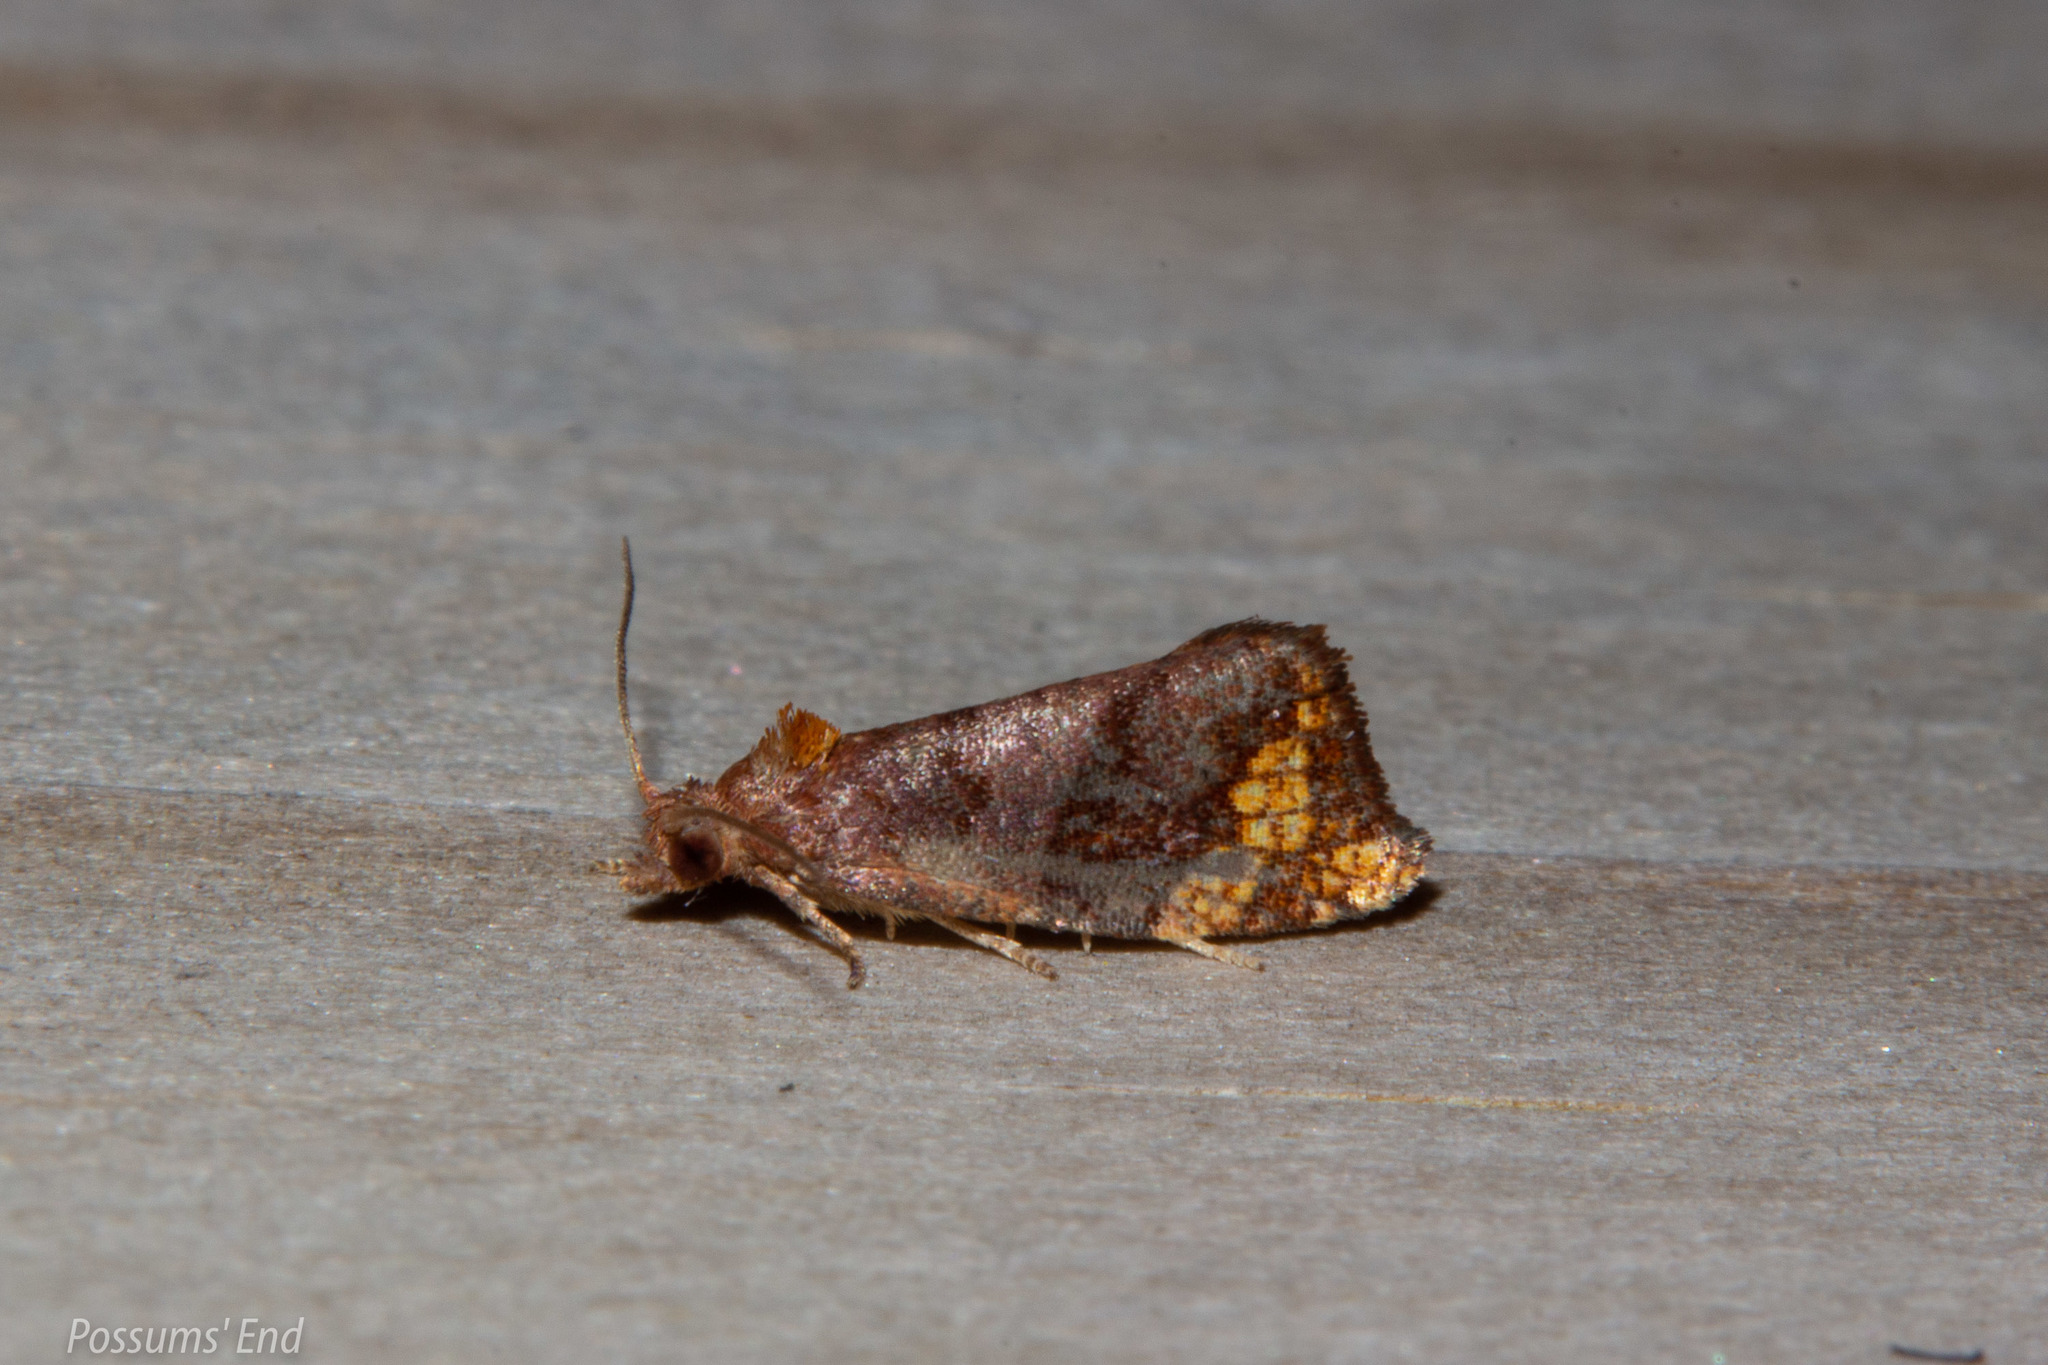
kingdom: Animalia
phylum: Arthropoda
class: Insecta
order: Lepidoptera
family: Tortricidae
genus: Pyrgotis
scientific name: Pyrgotis eudorana
